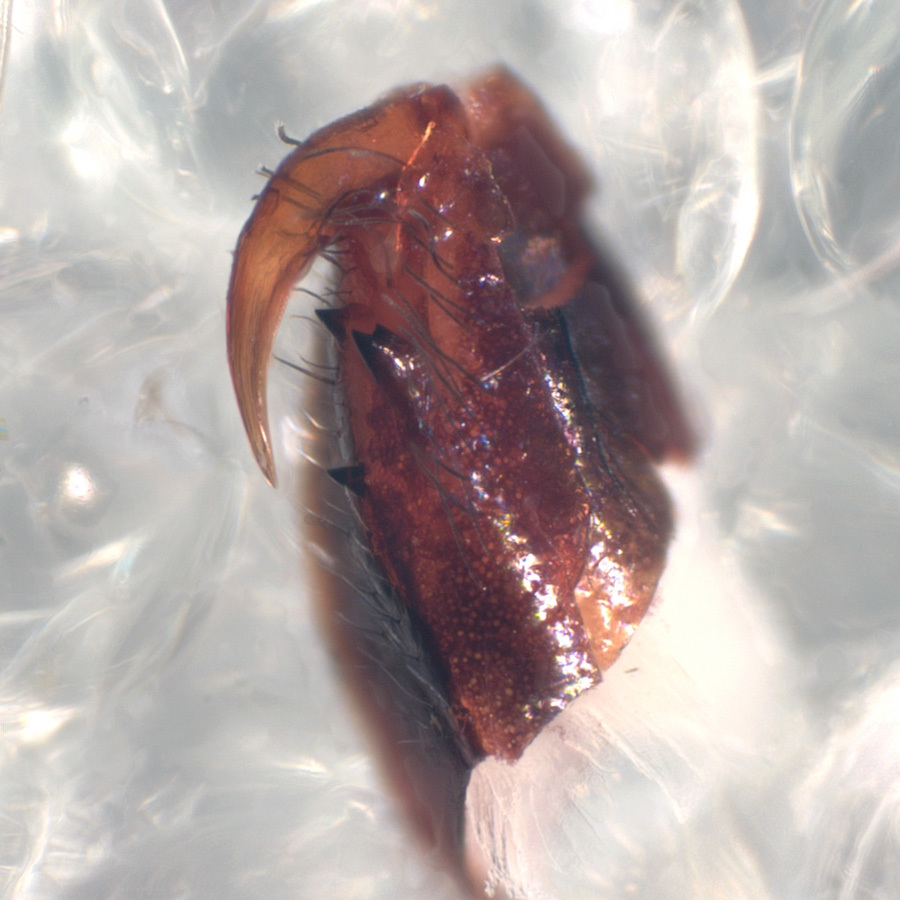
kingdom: Animalia
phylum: Arthropoda
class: Arachnida
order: Araneae
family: Salticidae
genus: Hentzia
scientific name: Hentzia vittata
